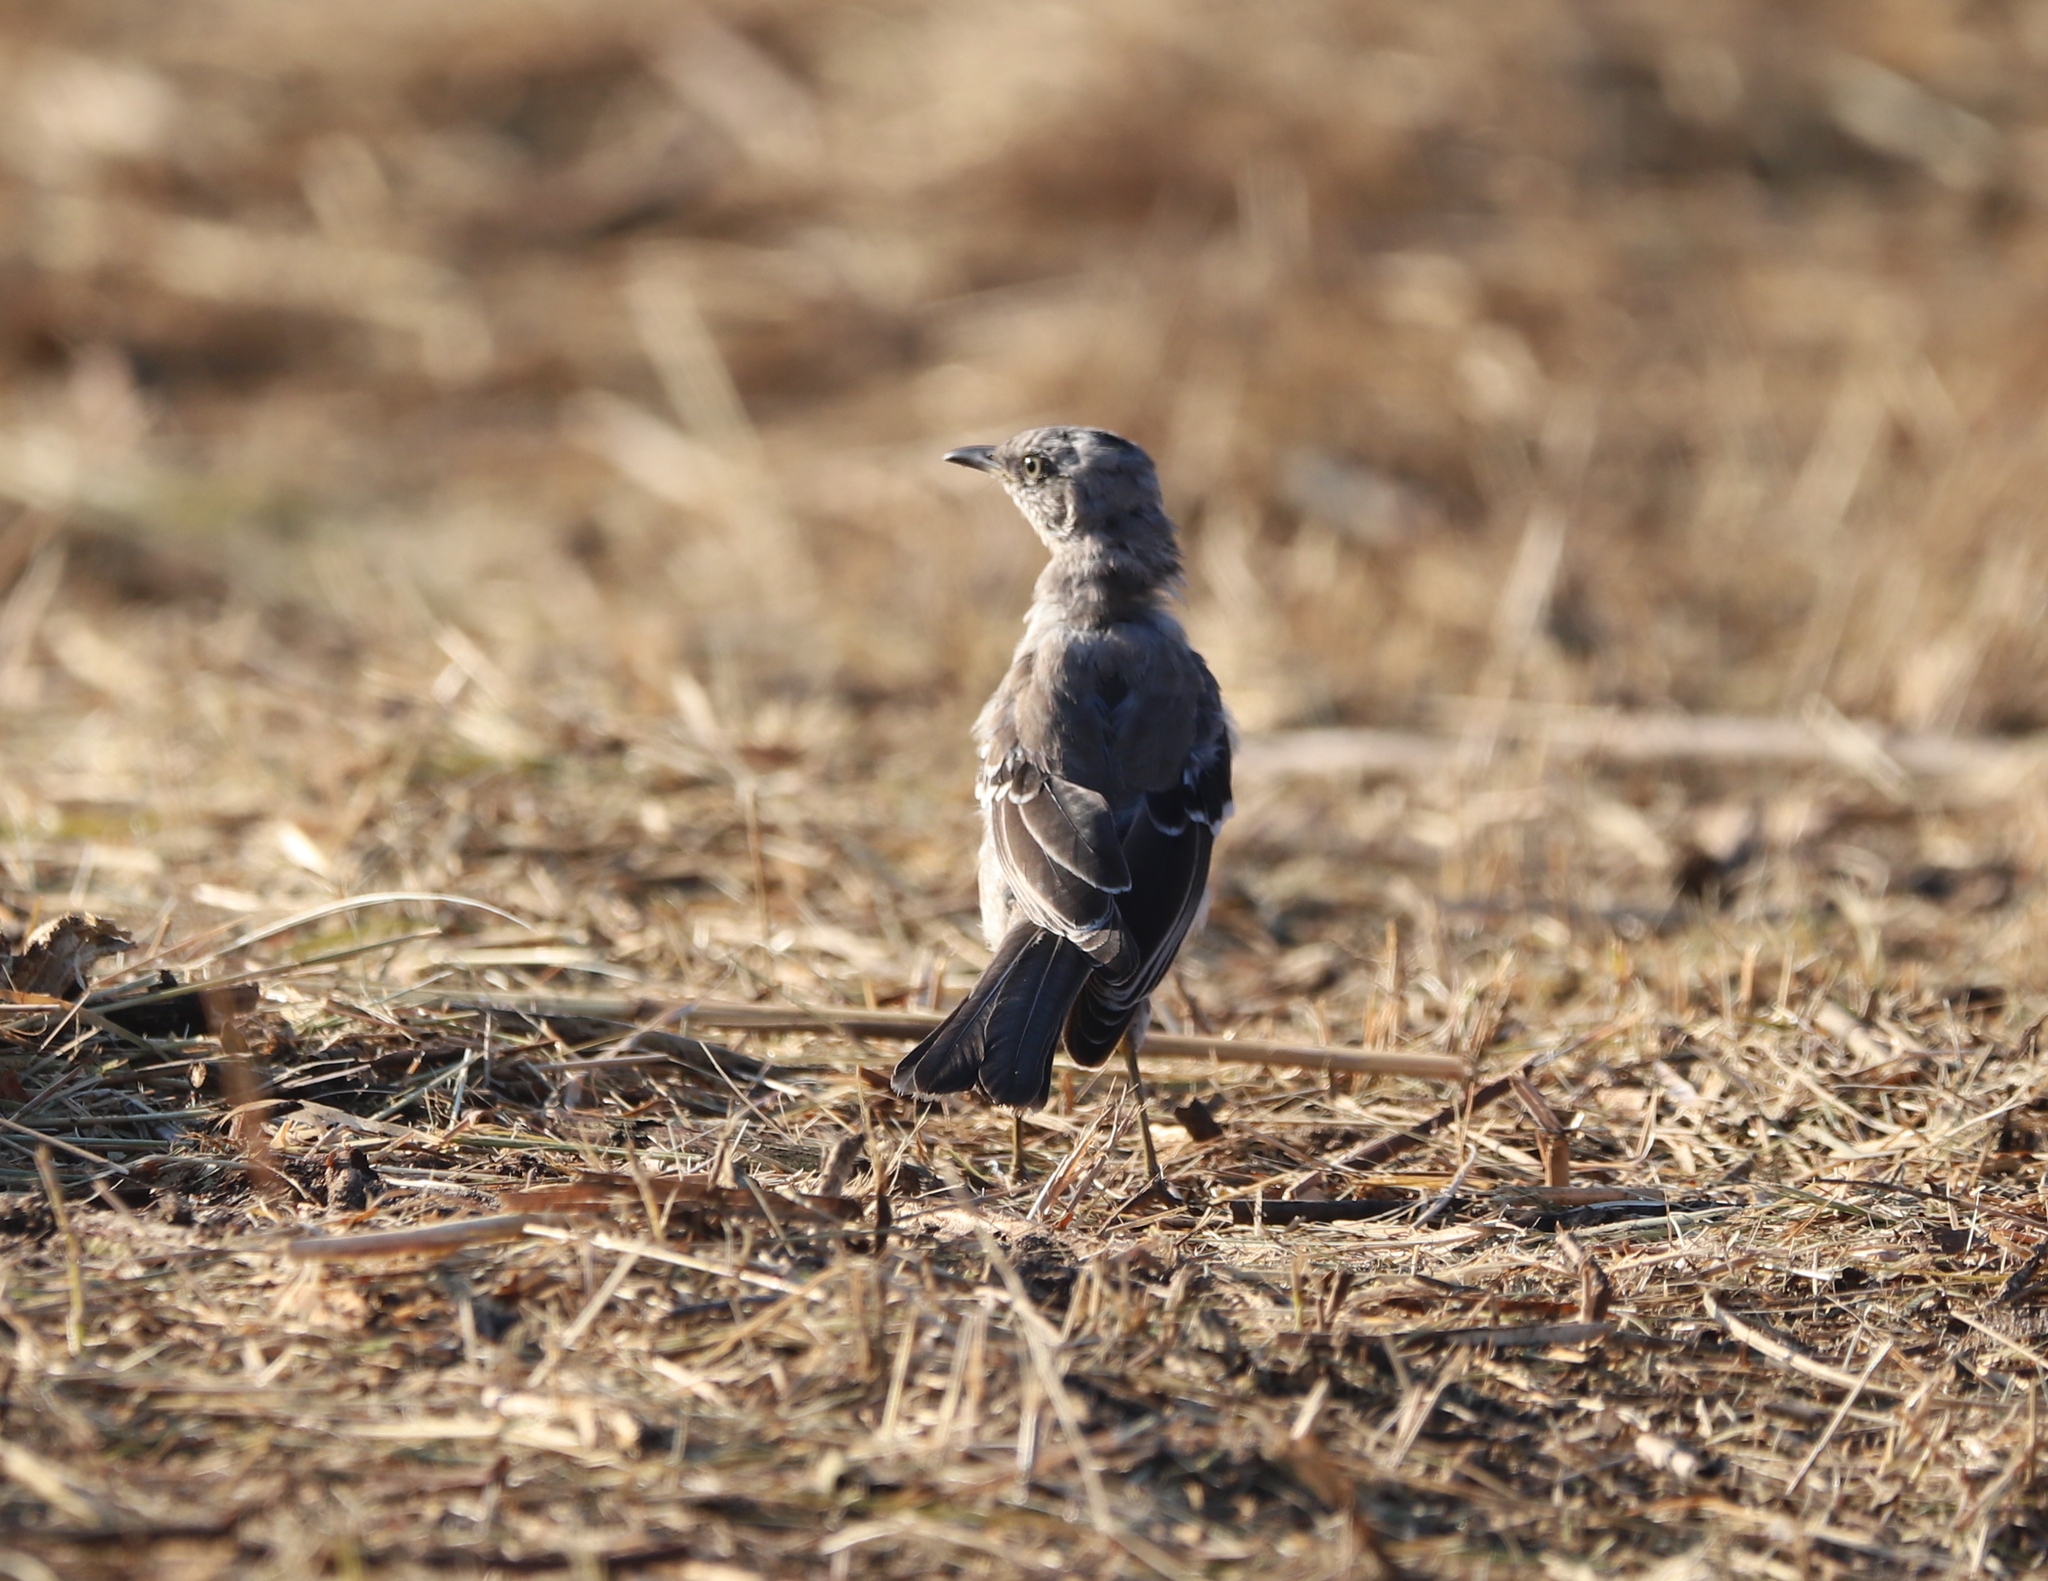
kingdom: Animalia
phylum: Chordata
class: Aves
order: Passeriformes
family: Mimidae
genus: Mimus
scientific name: Mimus polyglottos
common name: Northern mockingbird
